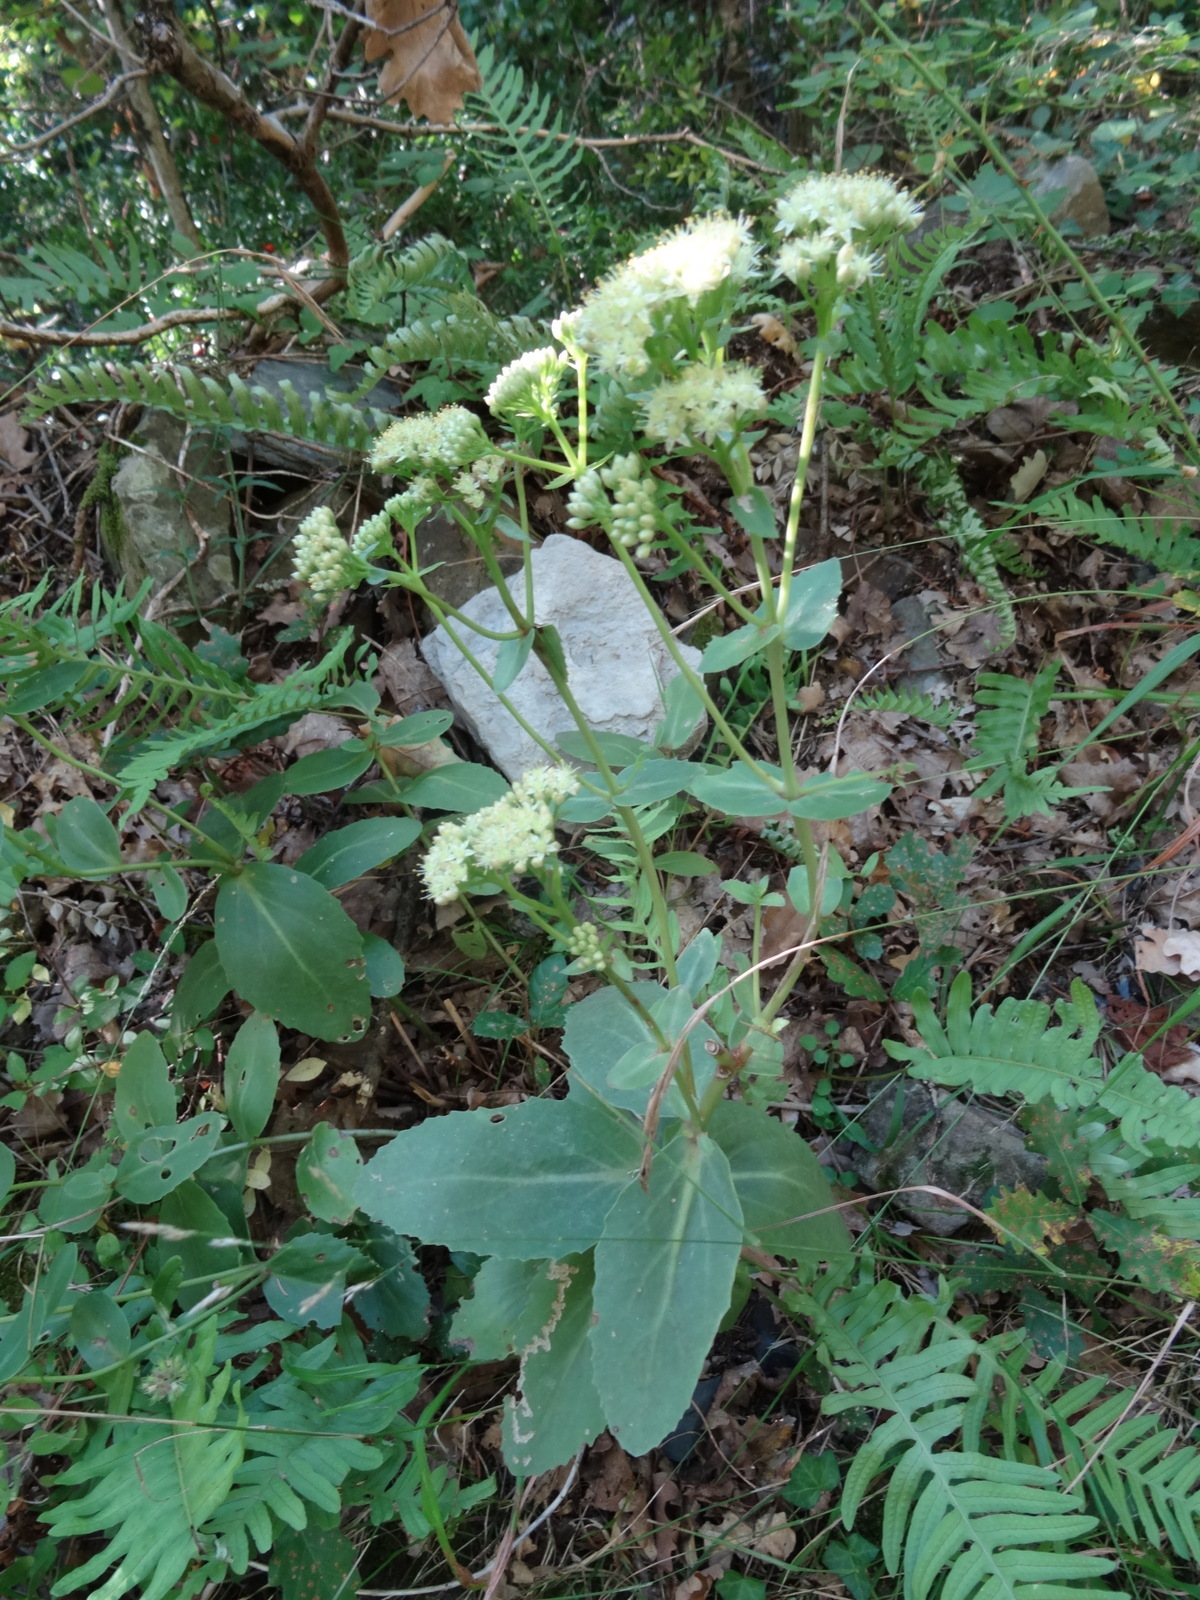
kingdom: Plantae
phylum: Tracheophyta
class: Magnoliopsida
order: Saxifragales
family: Crassulaceae
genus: Hylotelephium
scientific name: Hylotelephium maximum
